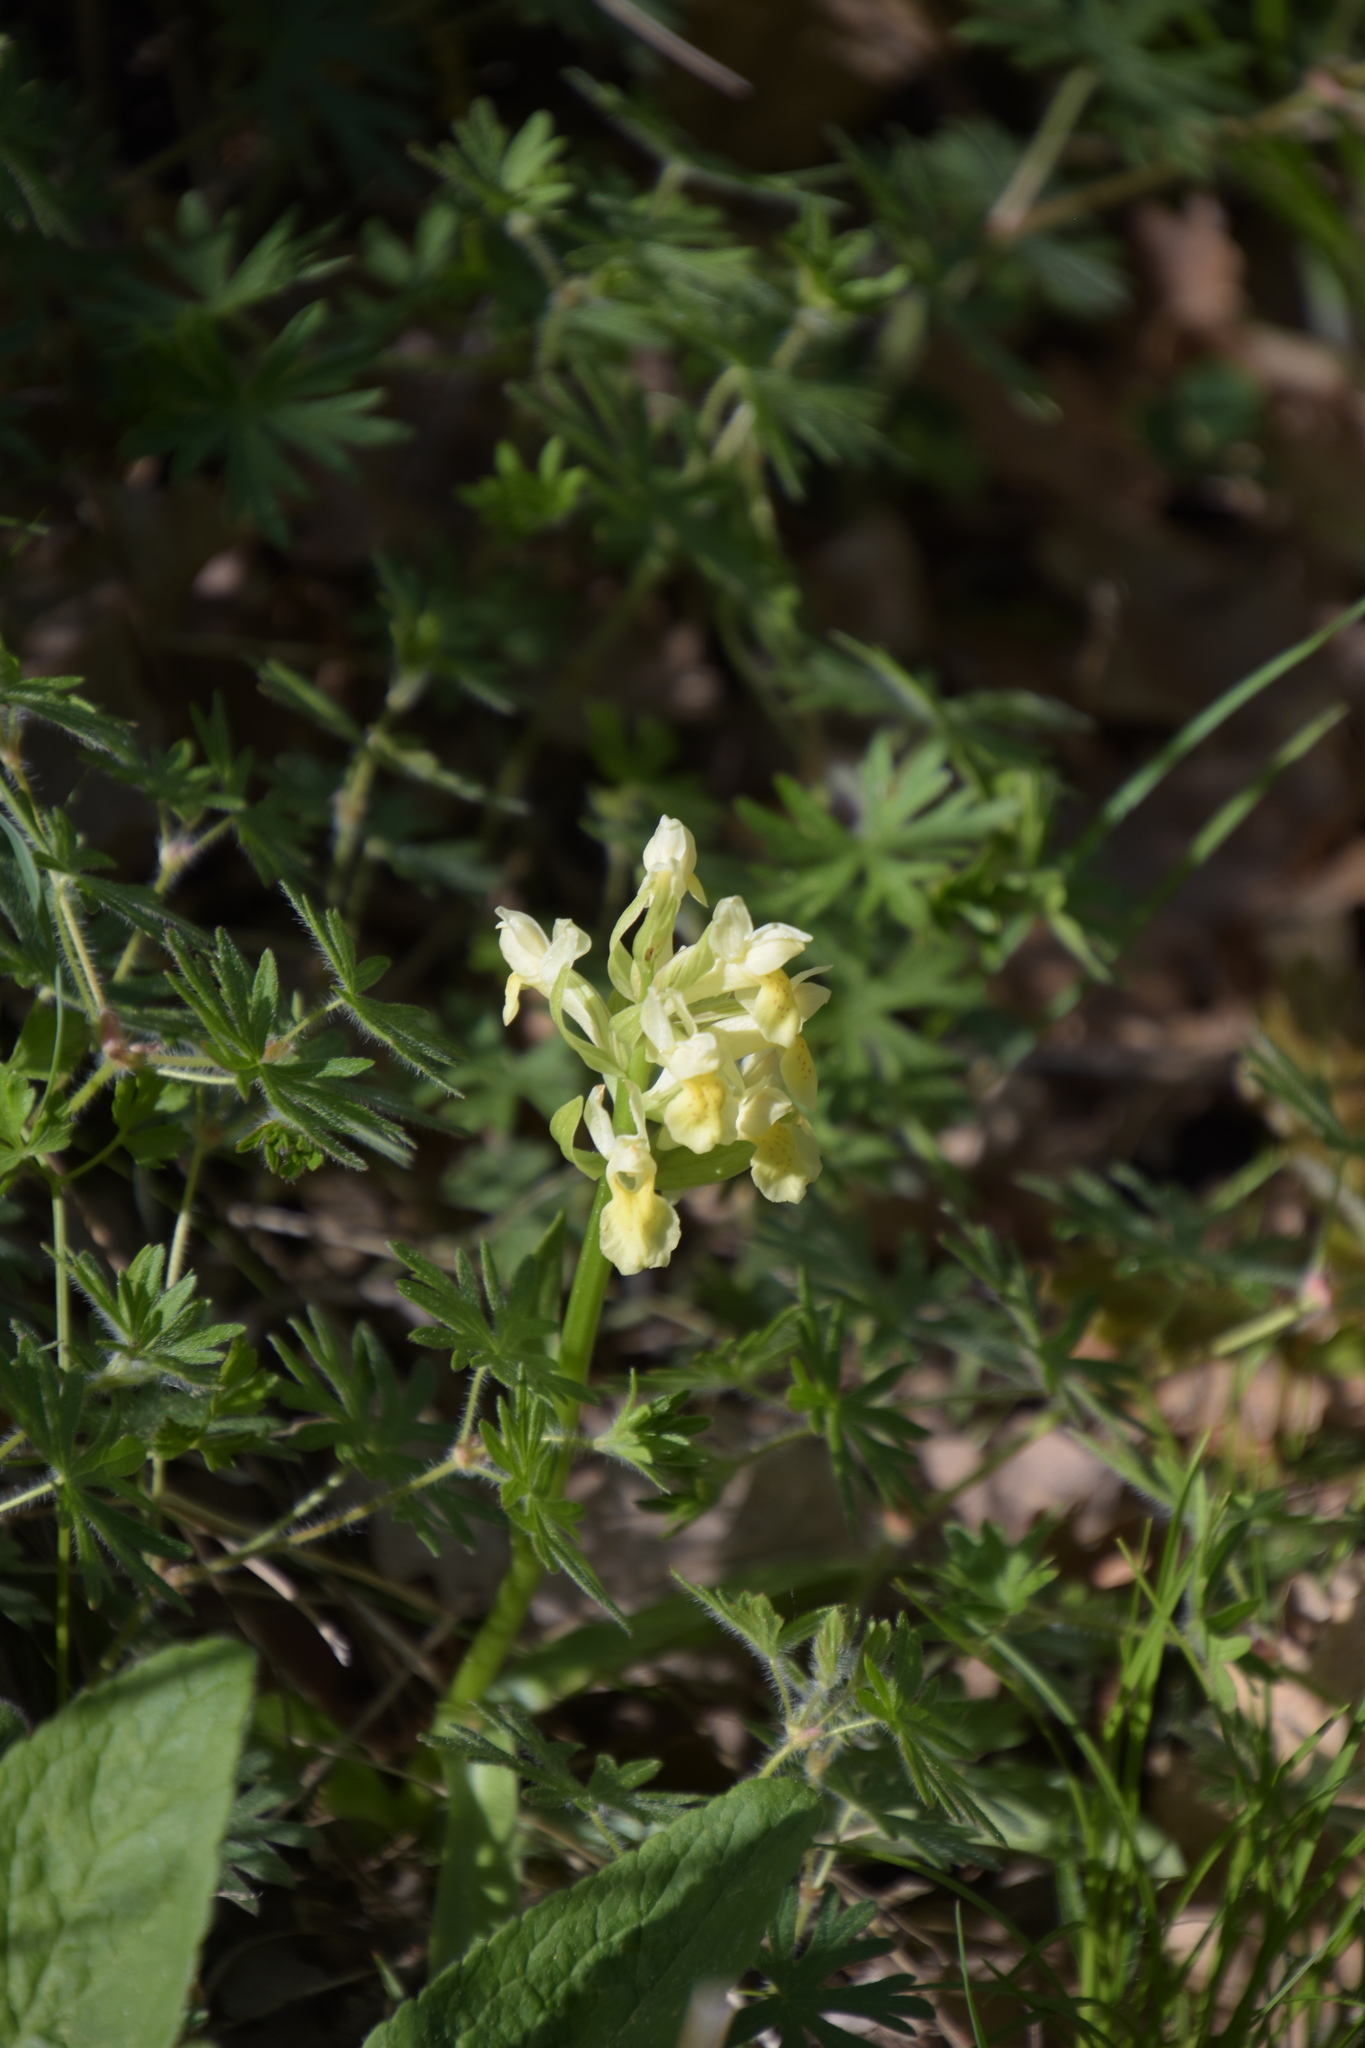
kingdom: Plantae
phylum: Tracheophyta
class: Liliopsida
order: Asparagales
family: Orchidaceae
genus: Dactylorhiza
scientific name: Dactylorhiza sambucina
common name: Elder-flowered orchid
